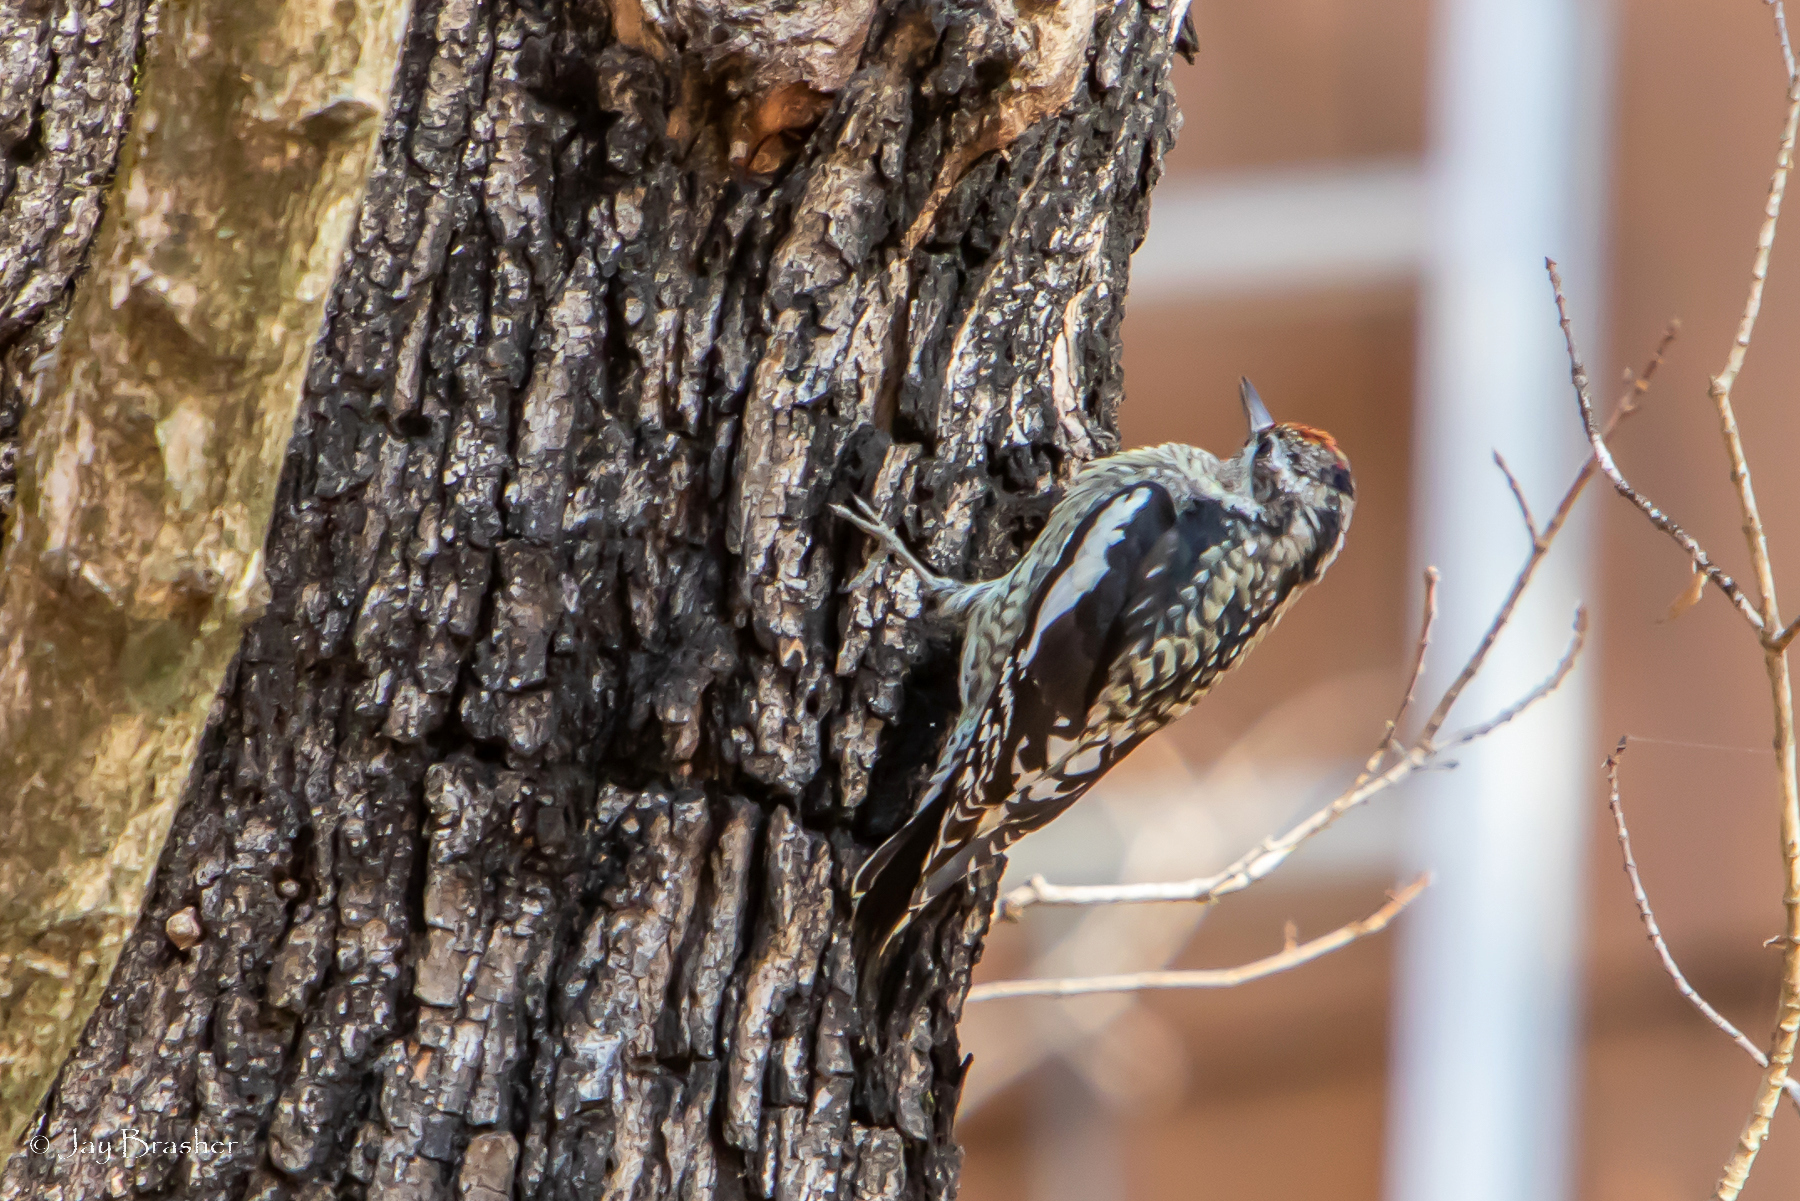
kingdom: Animalia
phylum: Chordata
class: Aves
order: Piciformes
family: Picidae
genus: Sphyrapicus
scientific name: Sphyrapicus varius
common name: Yellow-bellied sapsucker
